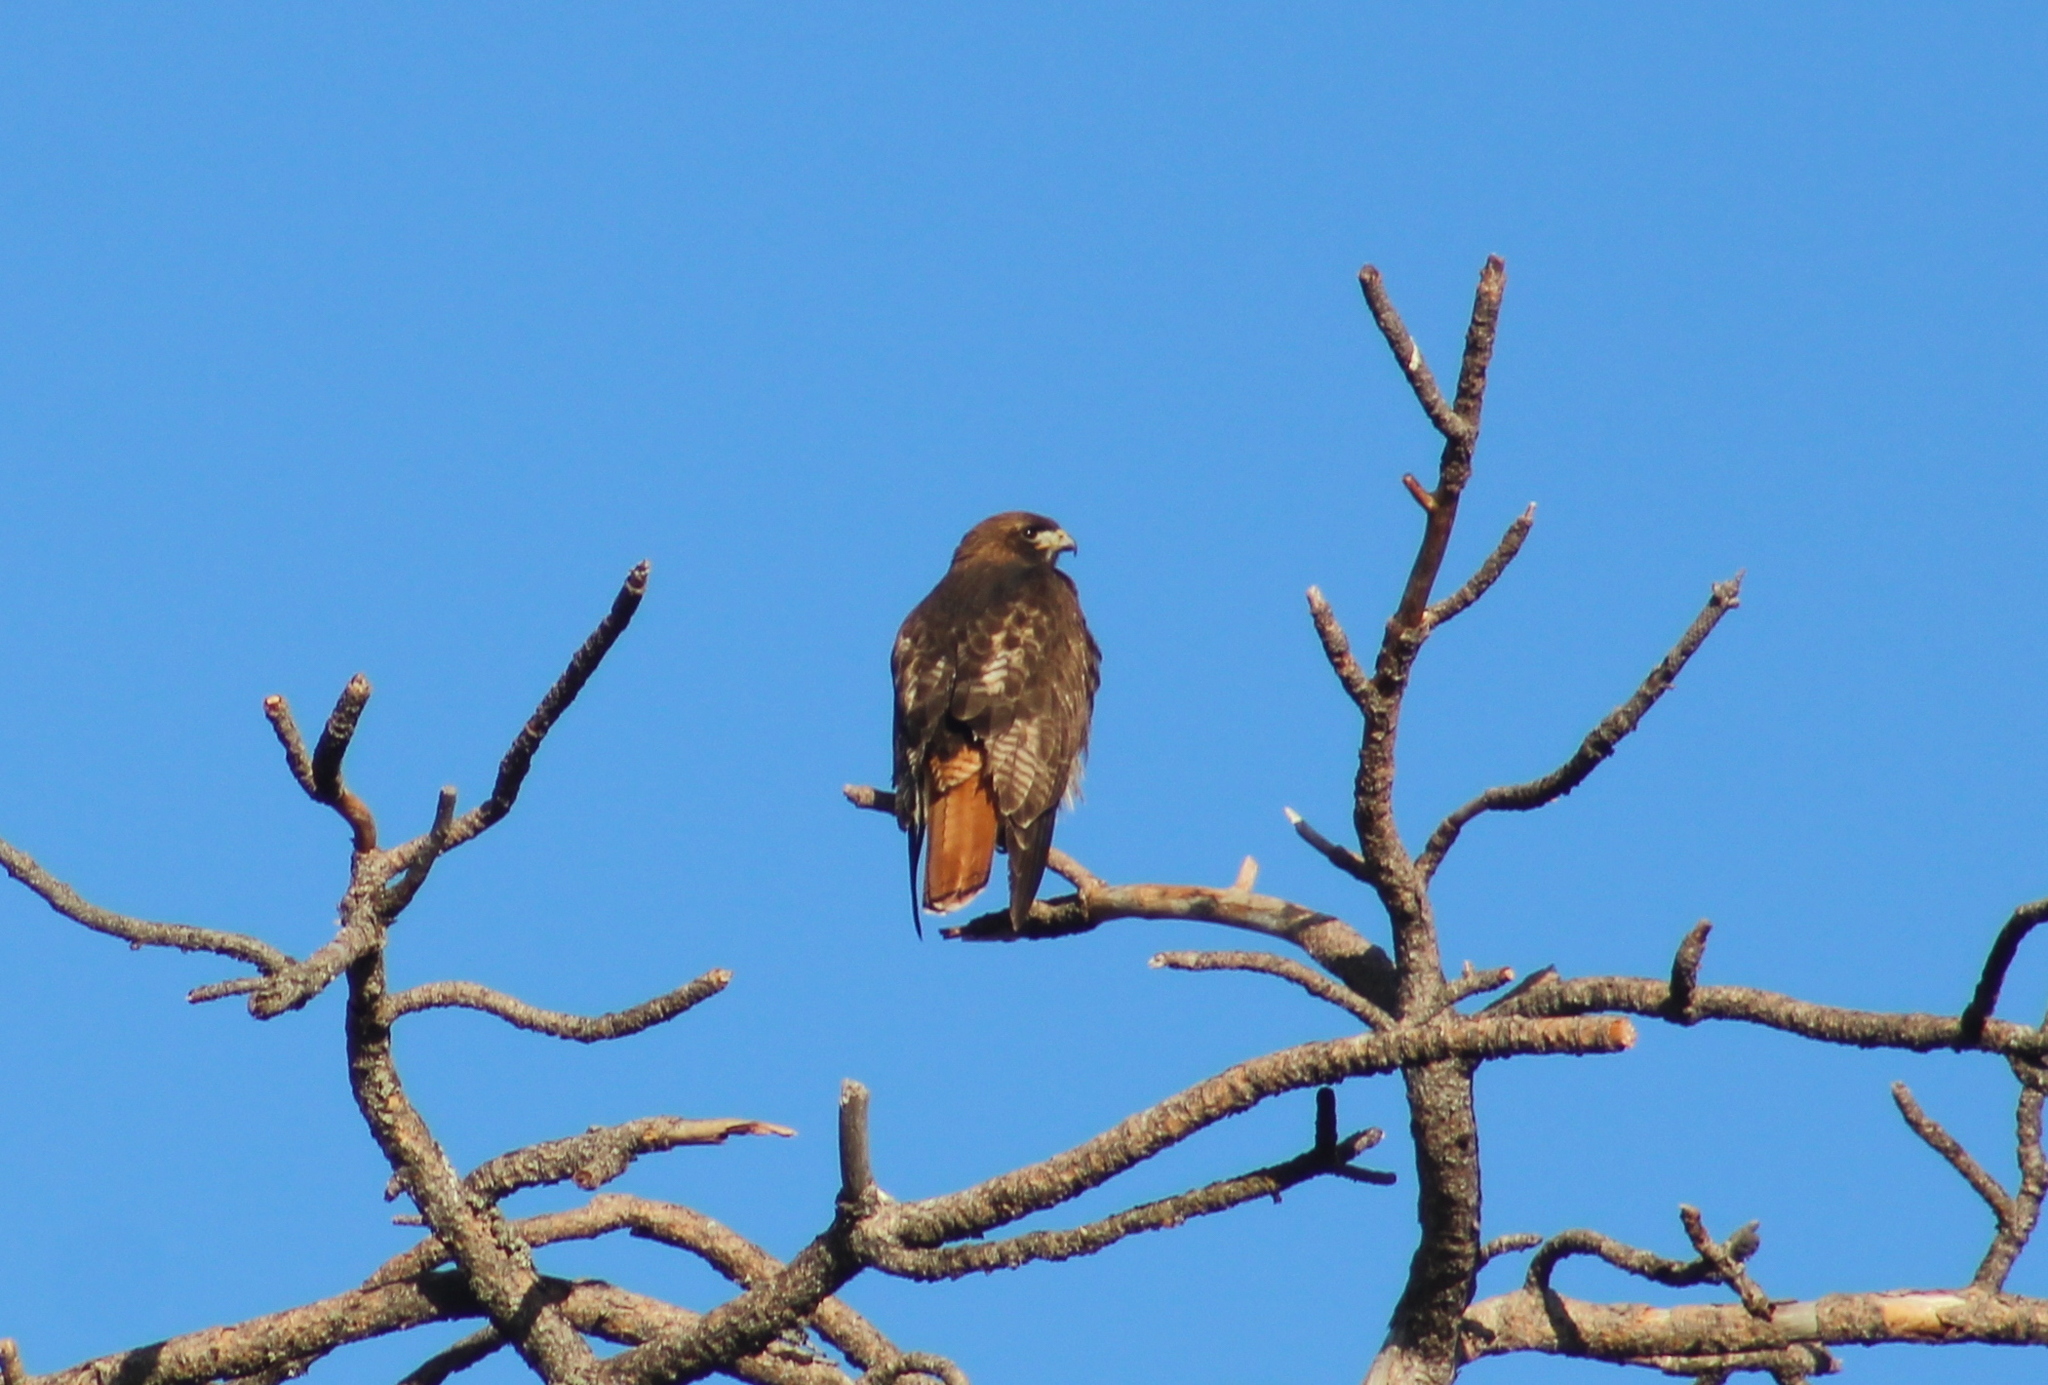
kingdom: Animalia
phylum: Chordata
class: Aves
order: Accipitriformes
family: Accipitridae
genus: Buteo
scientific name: Buteo jamaicensis
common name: Red-tailed hawk
